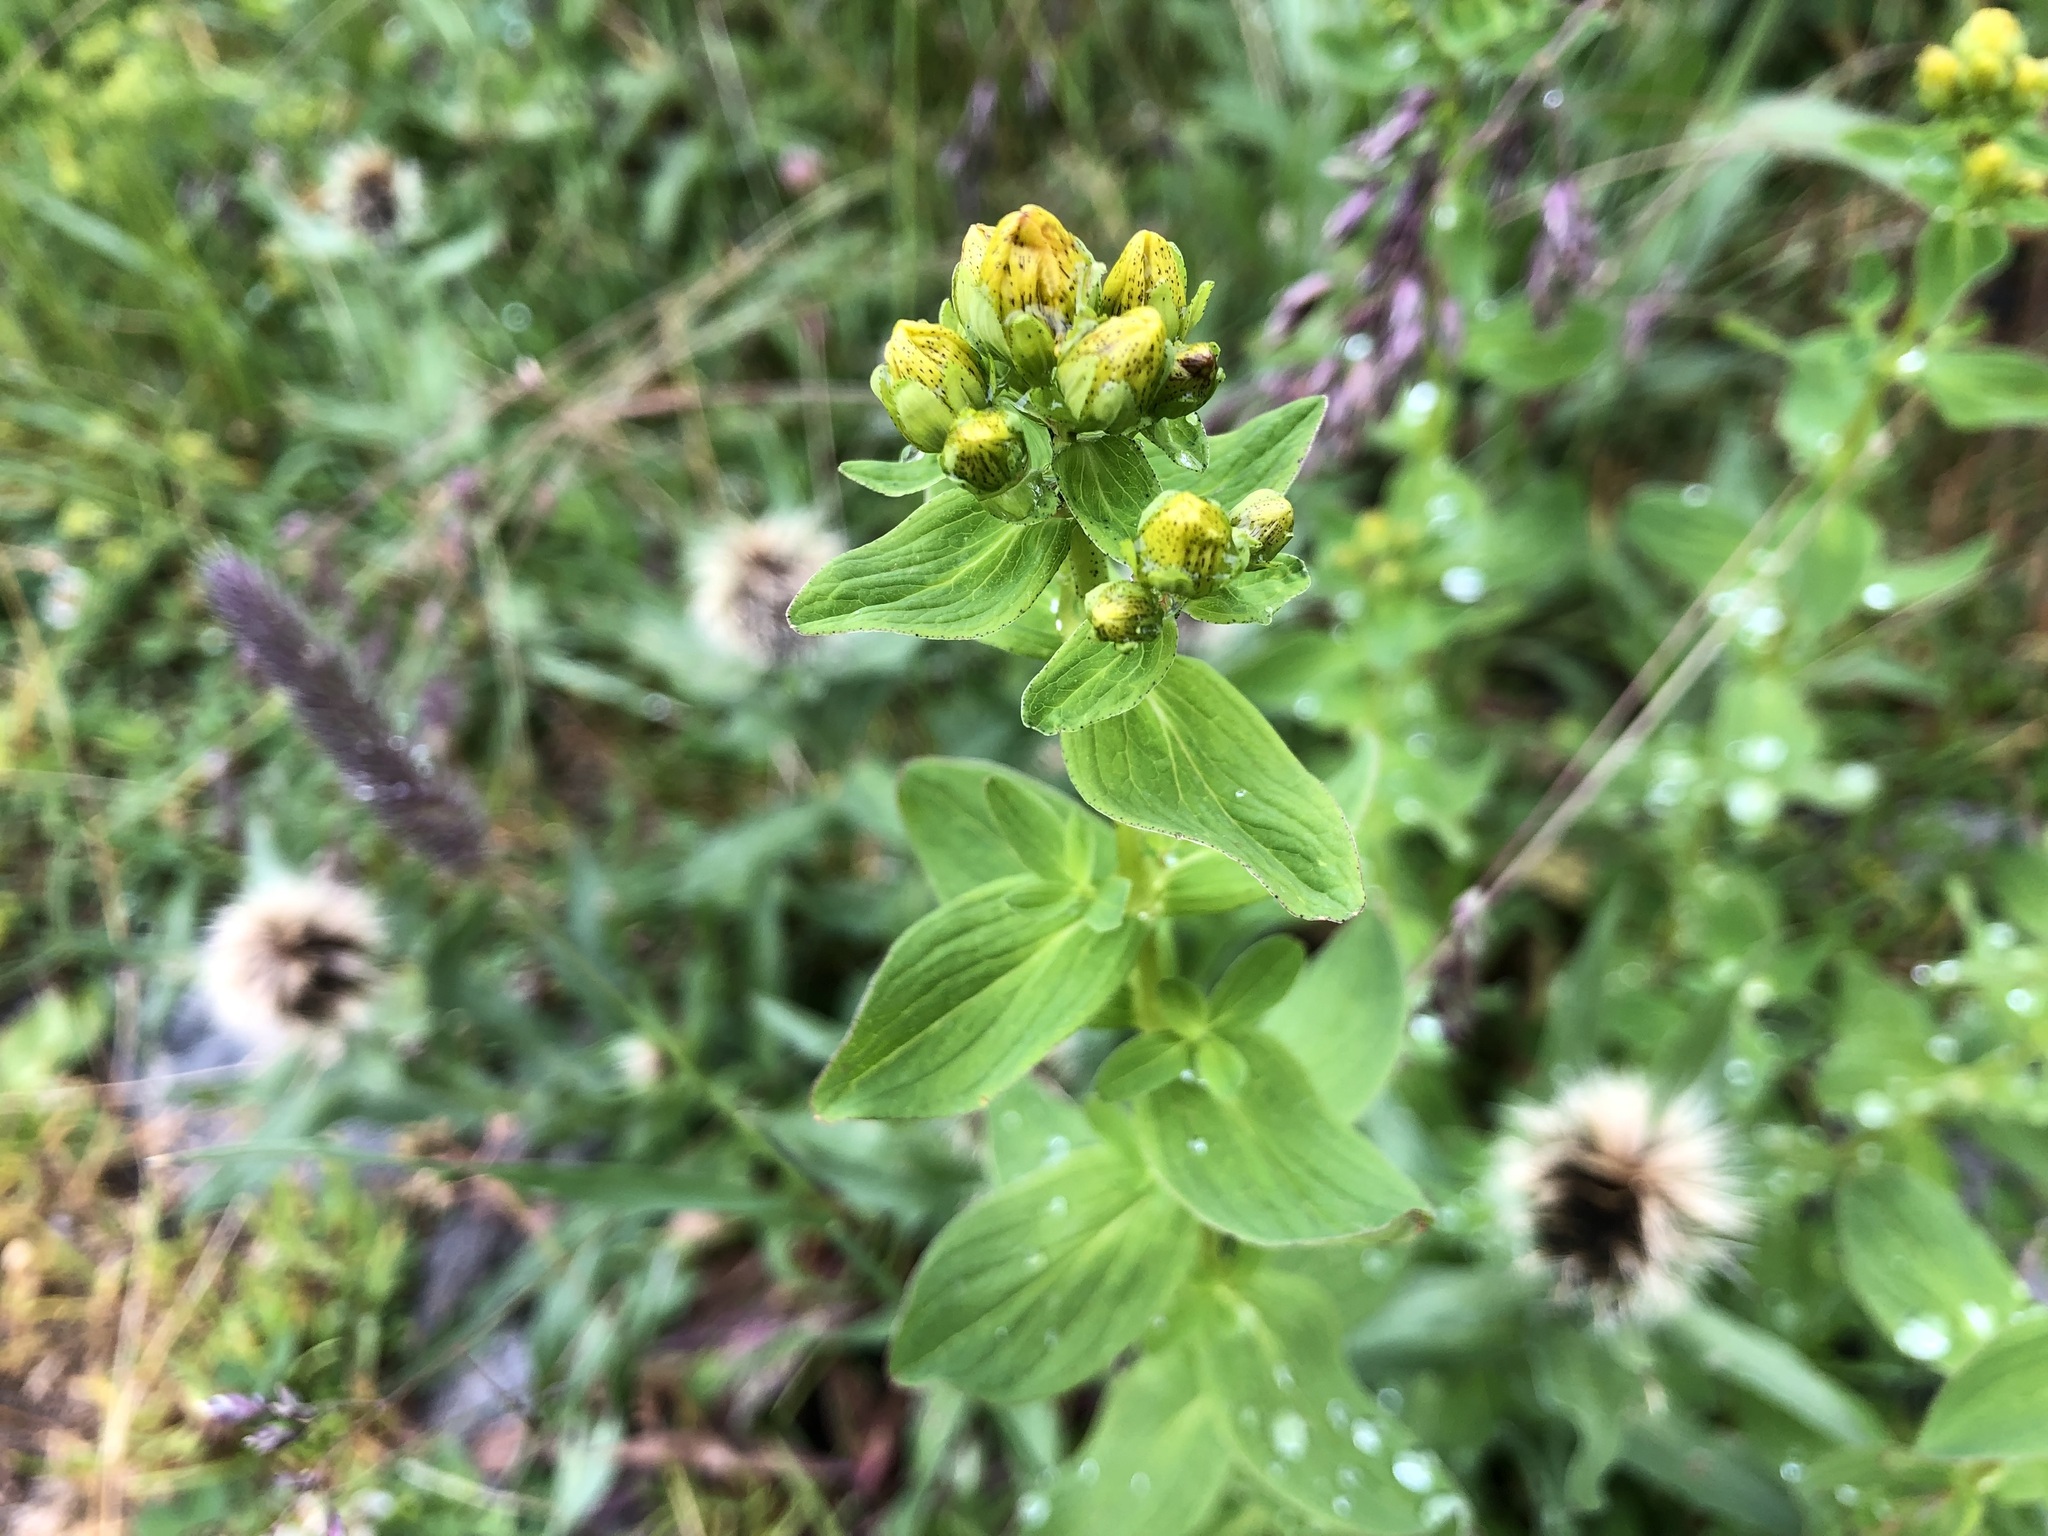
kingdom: Plantae
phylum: Tracheophyta
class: Magnoliopsida
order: Malpighiales
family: Hypericaceae
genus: Hypericum
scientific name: Hypericum maculatum
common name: Imperforate st. john's-wort
